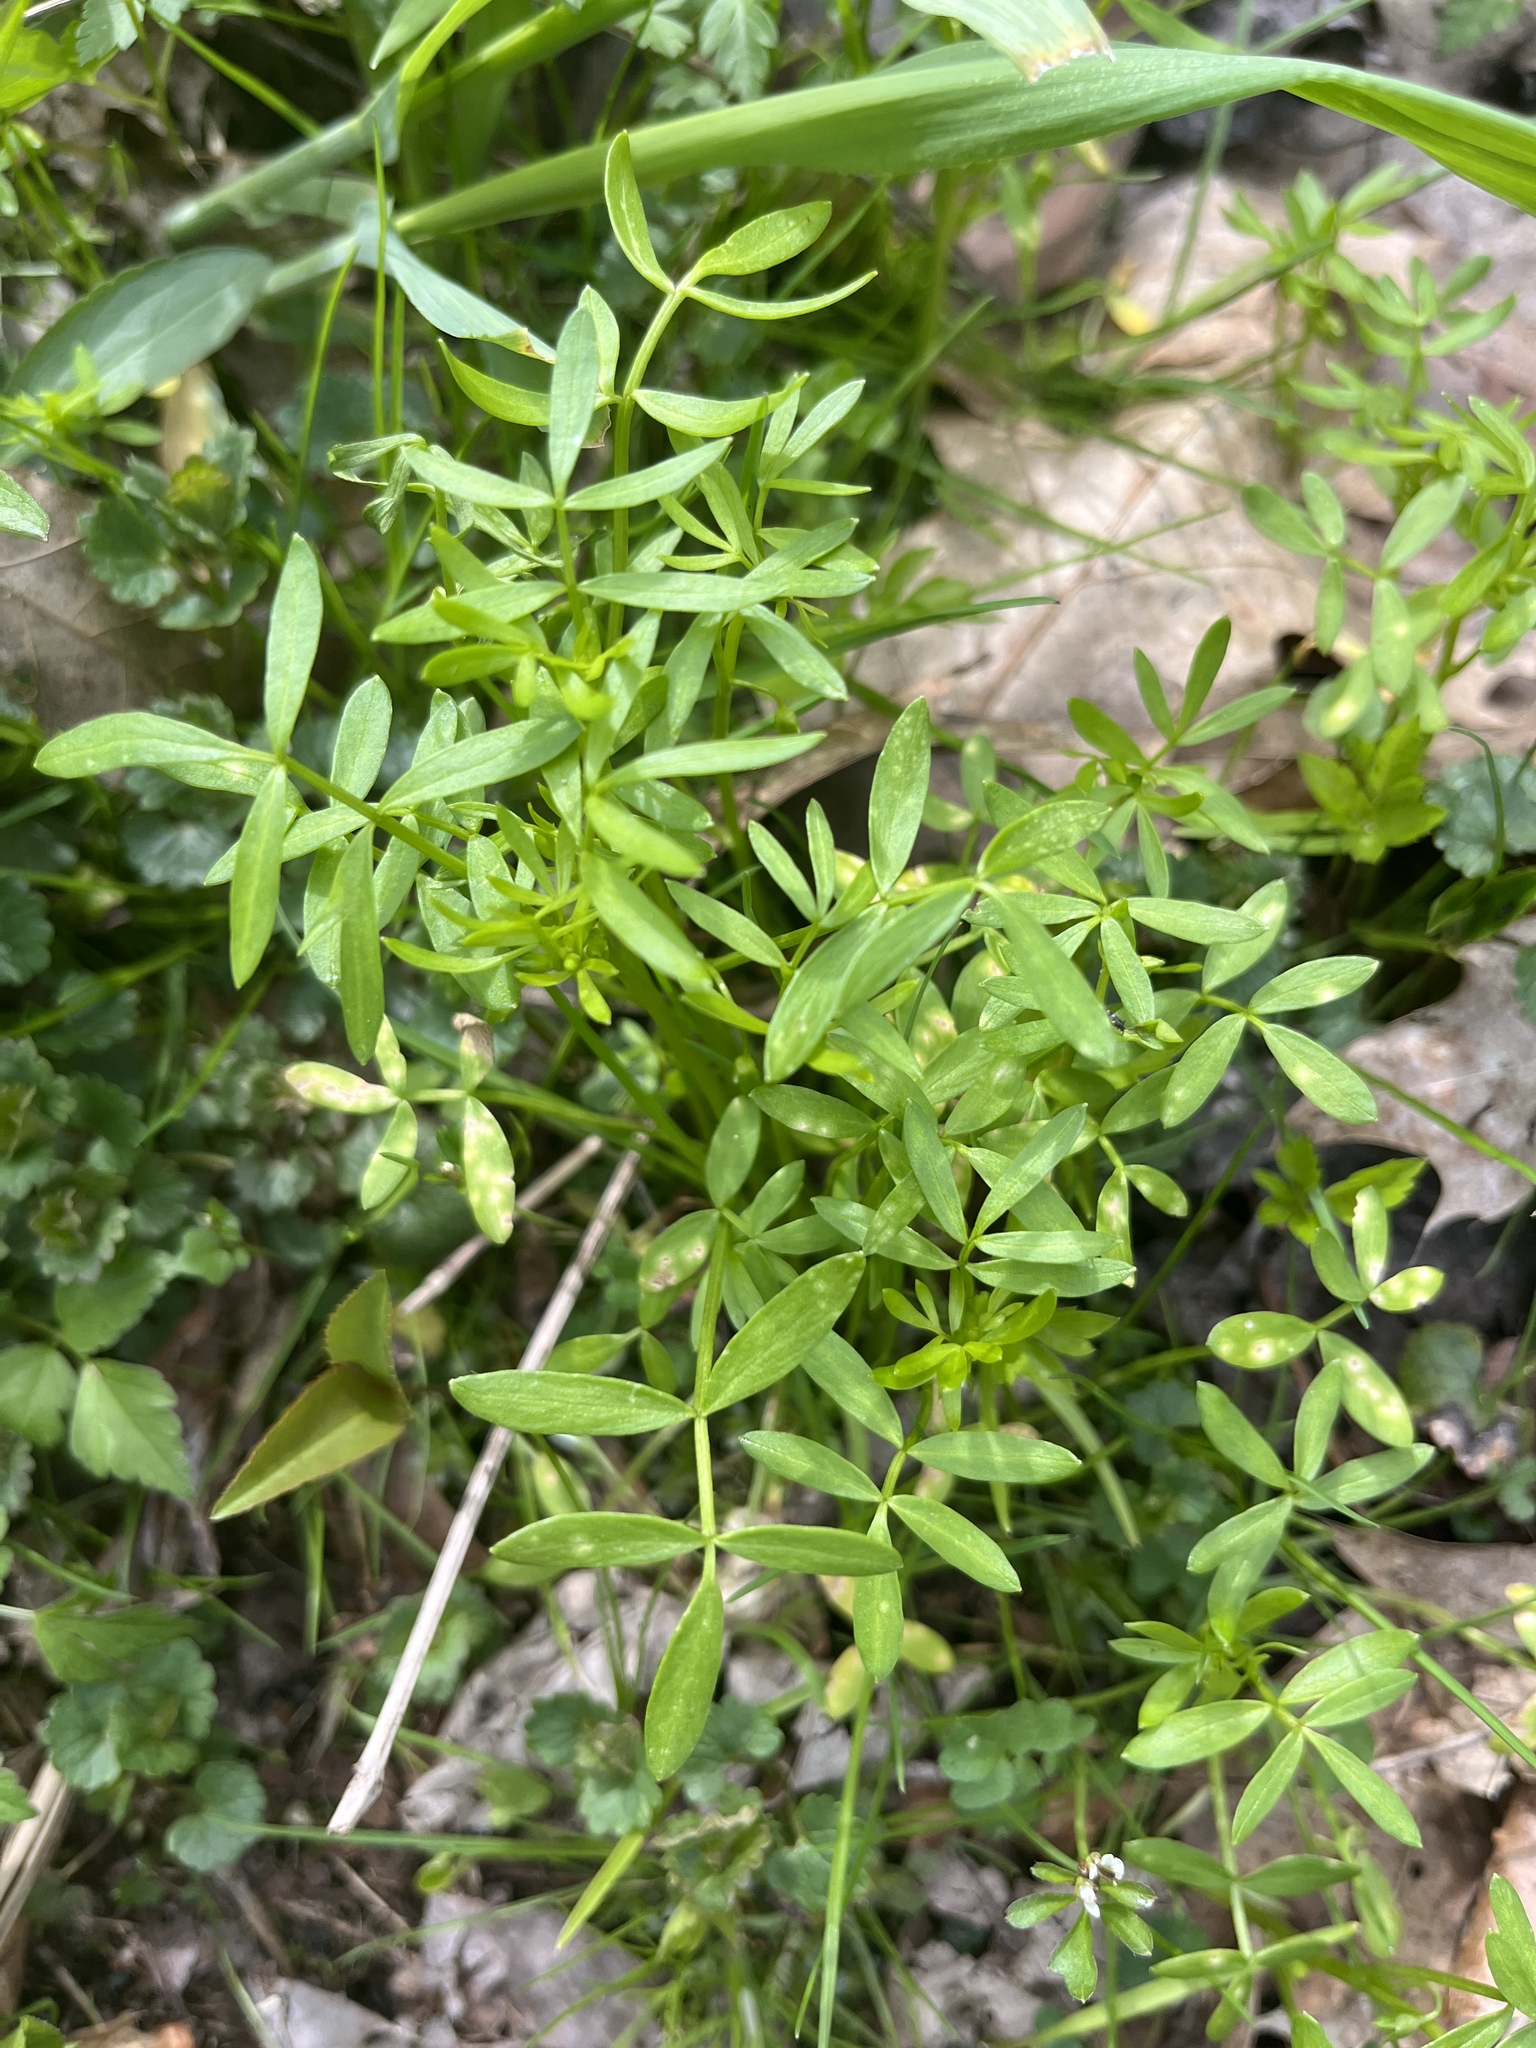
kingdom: Plantae
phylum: Tracheophyta
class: Magnoliopsida
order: Brassicales
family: Limnanthaceae
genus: Floerkea
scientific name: Floerkea proserpinacoides
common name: False mermaid
